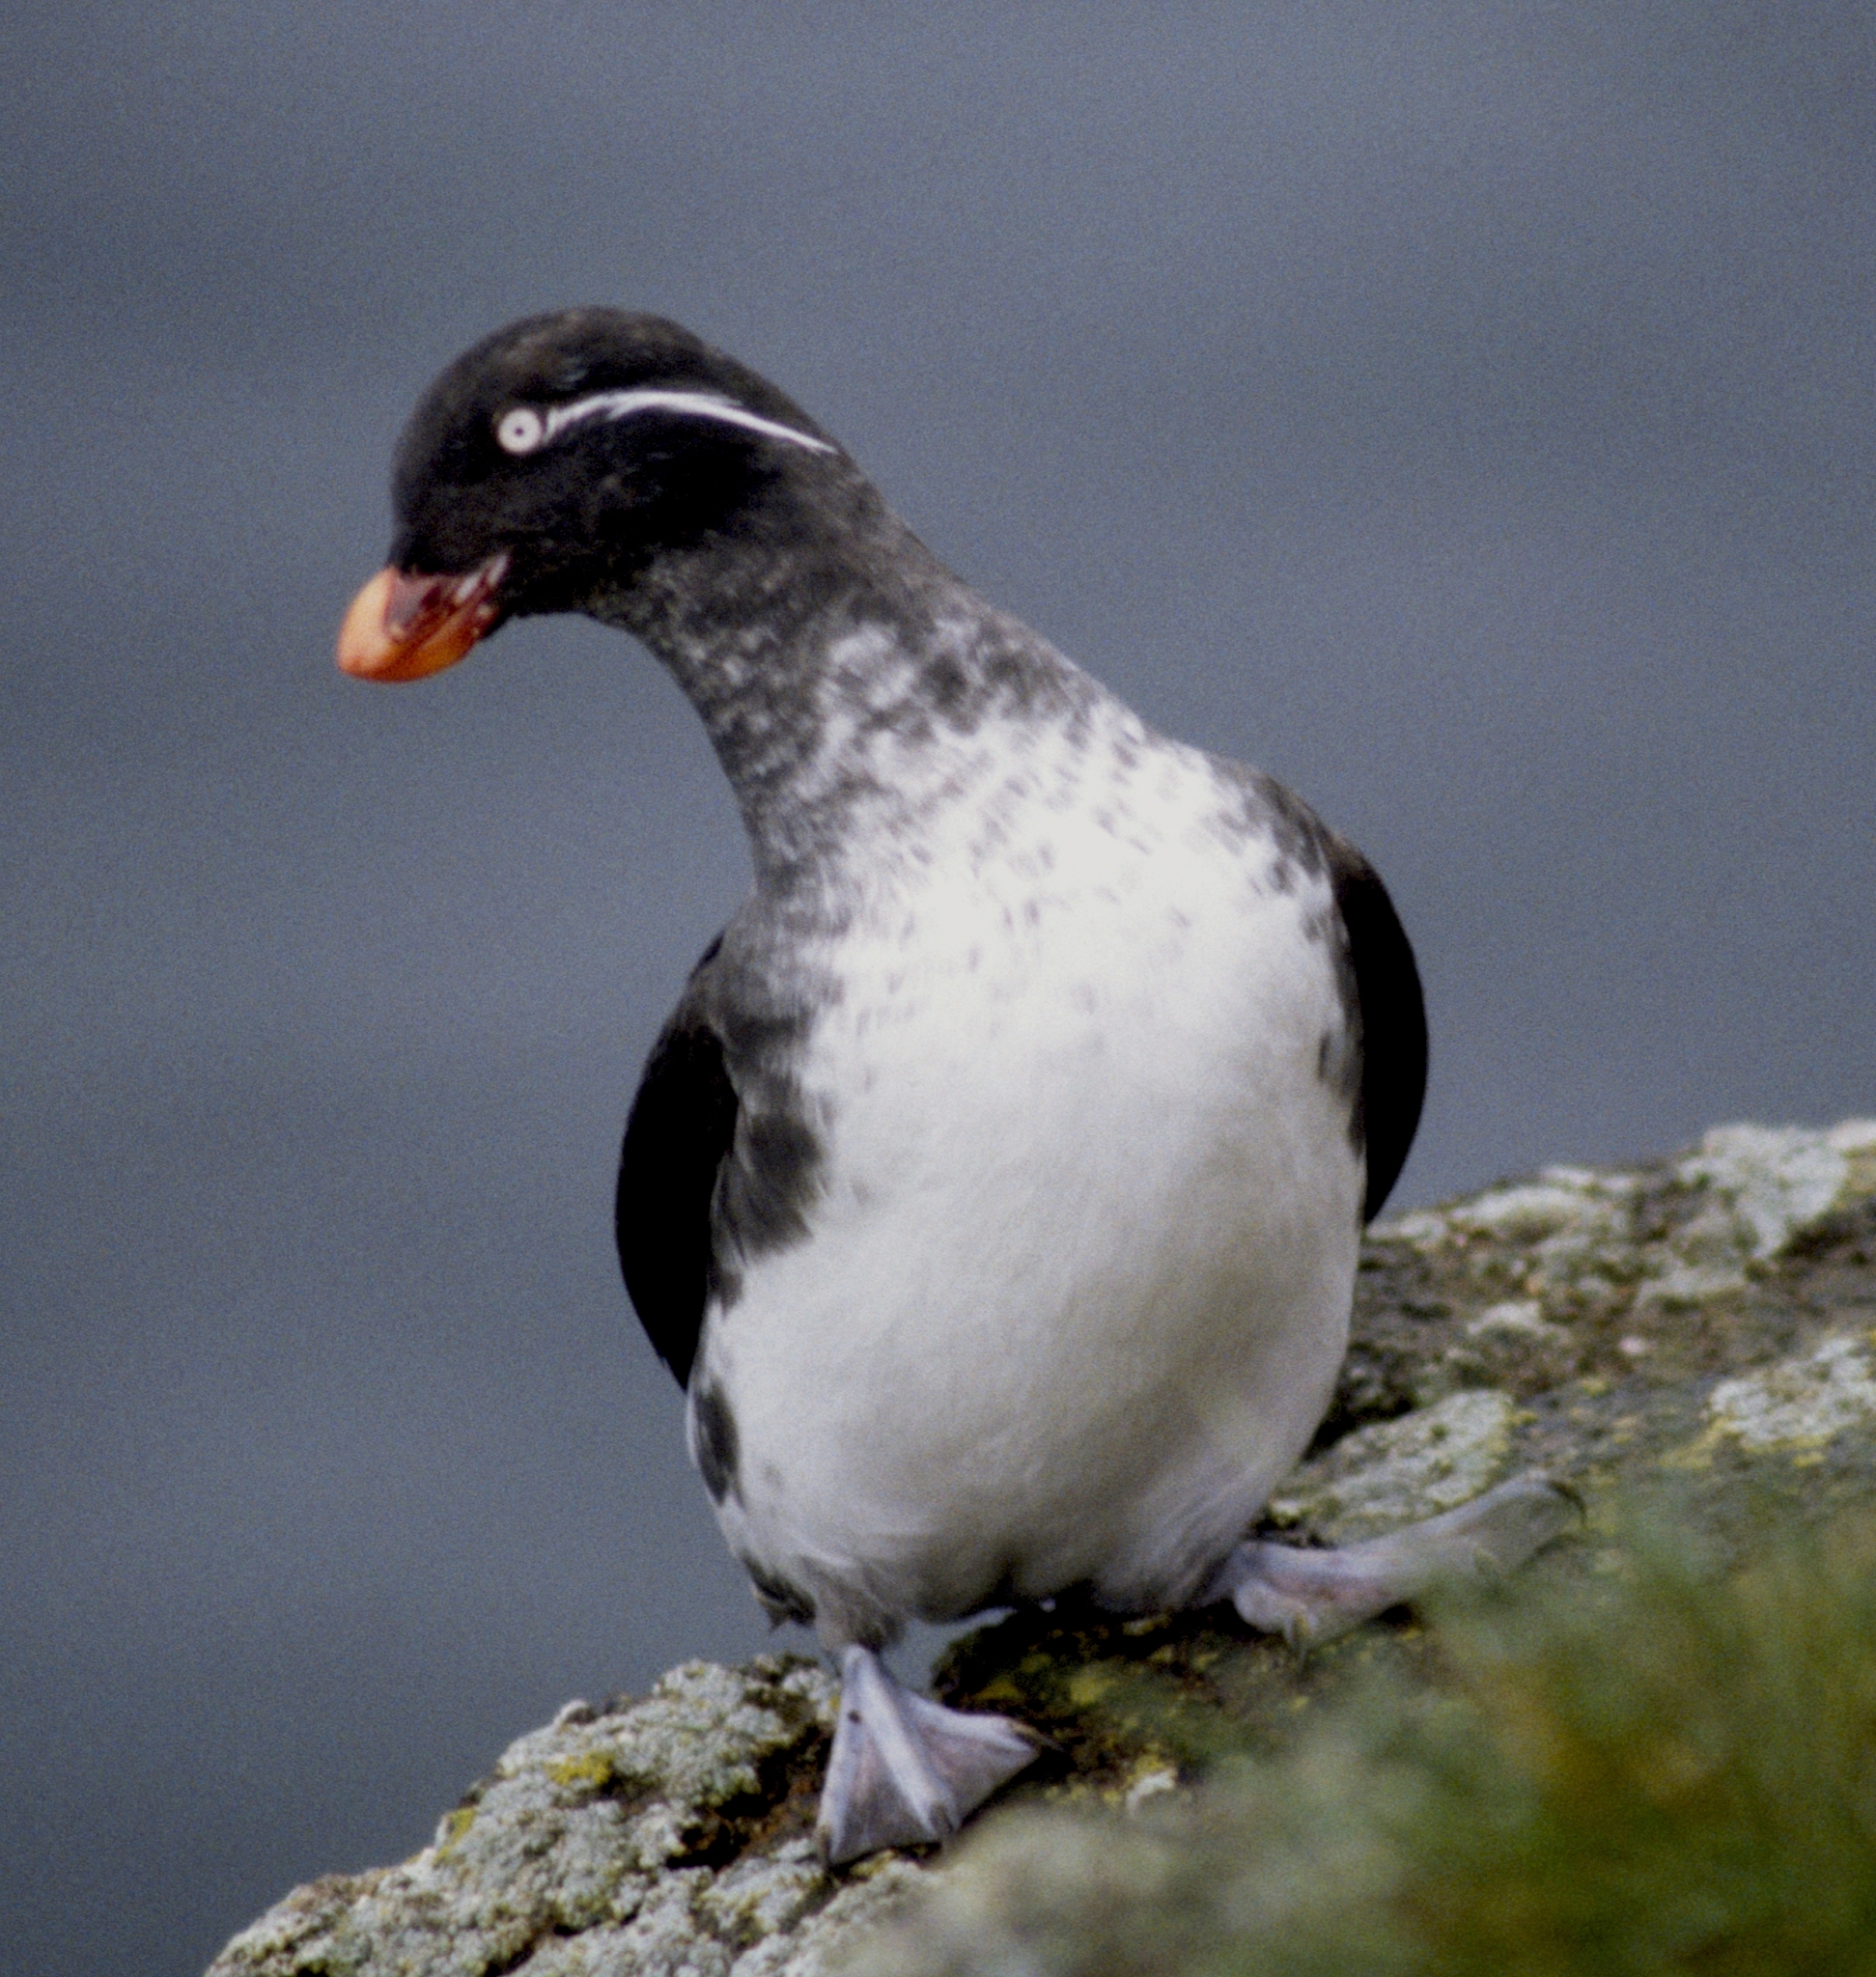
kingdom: Animalia
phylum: Chordata
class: Aves
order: Charadriiformes
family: Alcidae
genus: Aethia
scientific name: Aethia psittacula
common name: Parakeet auklet
